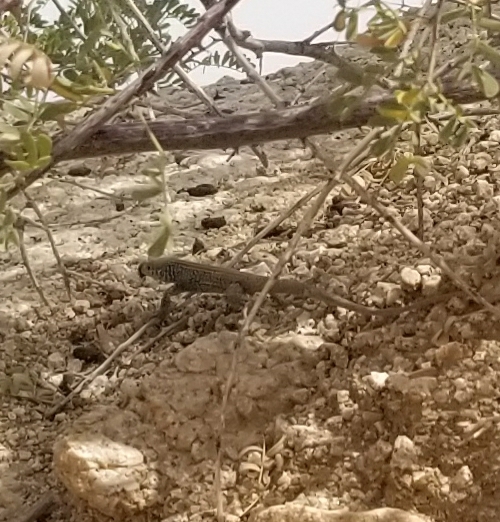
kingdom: Animalia
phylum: Chordata
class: Squamata
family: Teiidae
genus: Aspidoscelis
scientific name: Aspidoscelis tigris
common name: Tiger whiptail
